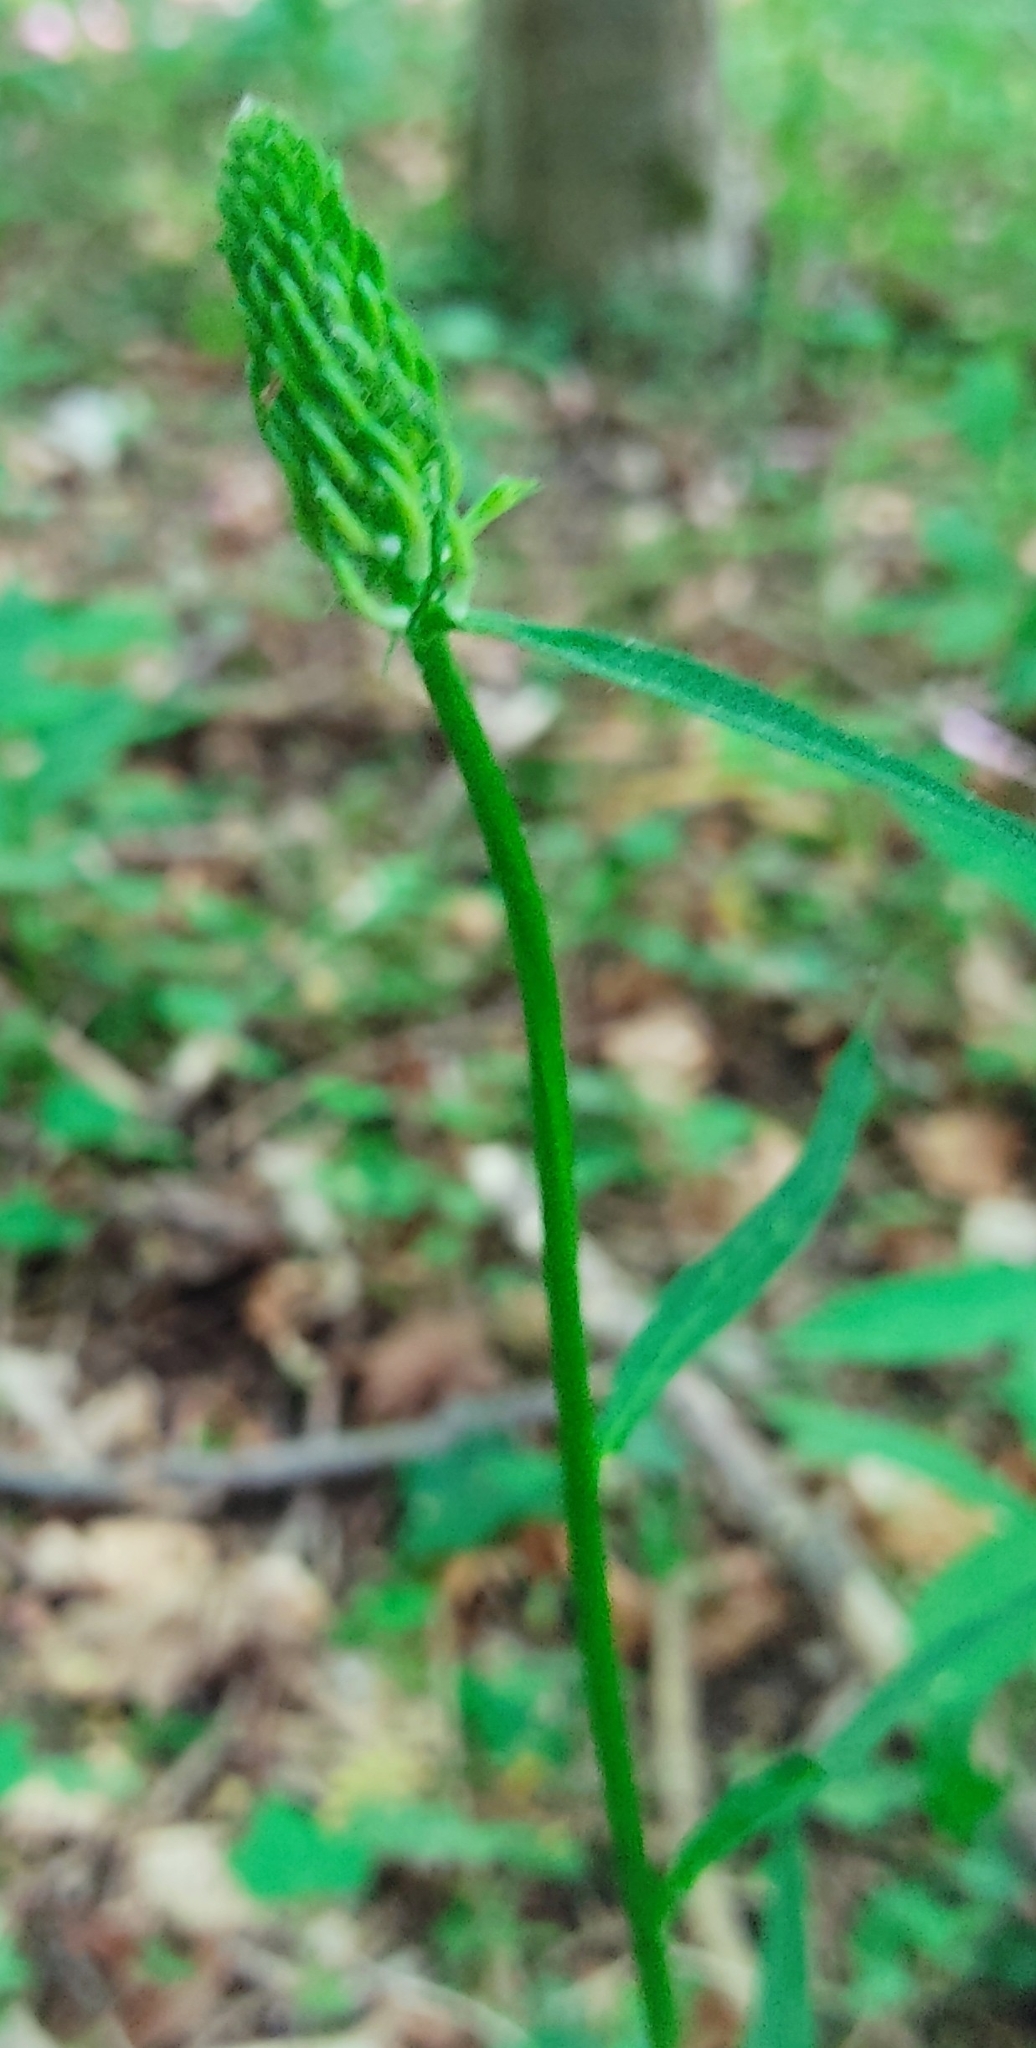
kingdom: Plantae
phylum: Tracheophyta
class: Magnoliopsida
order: Asterales
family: Campanulaceae
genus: Phyteuma
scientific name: Phyteuma spicatum
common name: Spiked rampion
